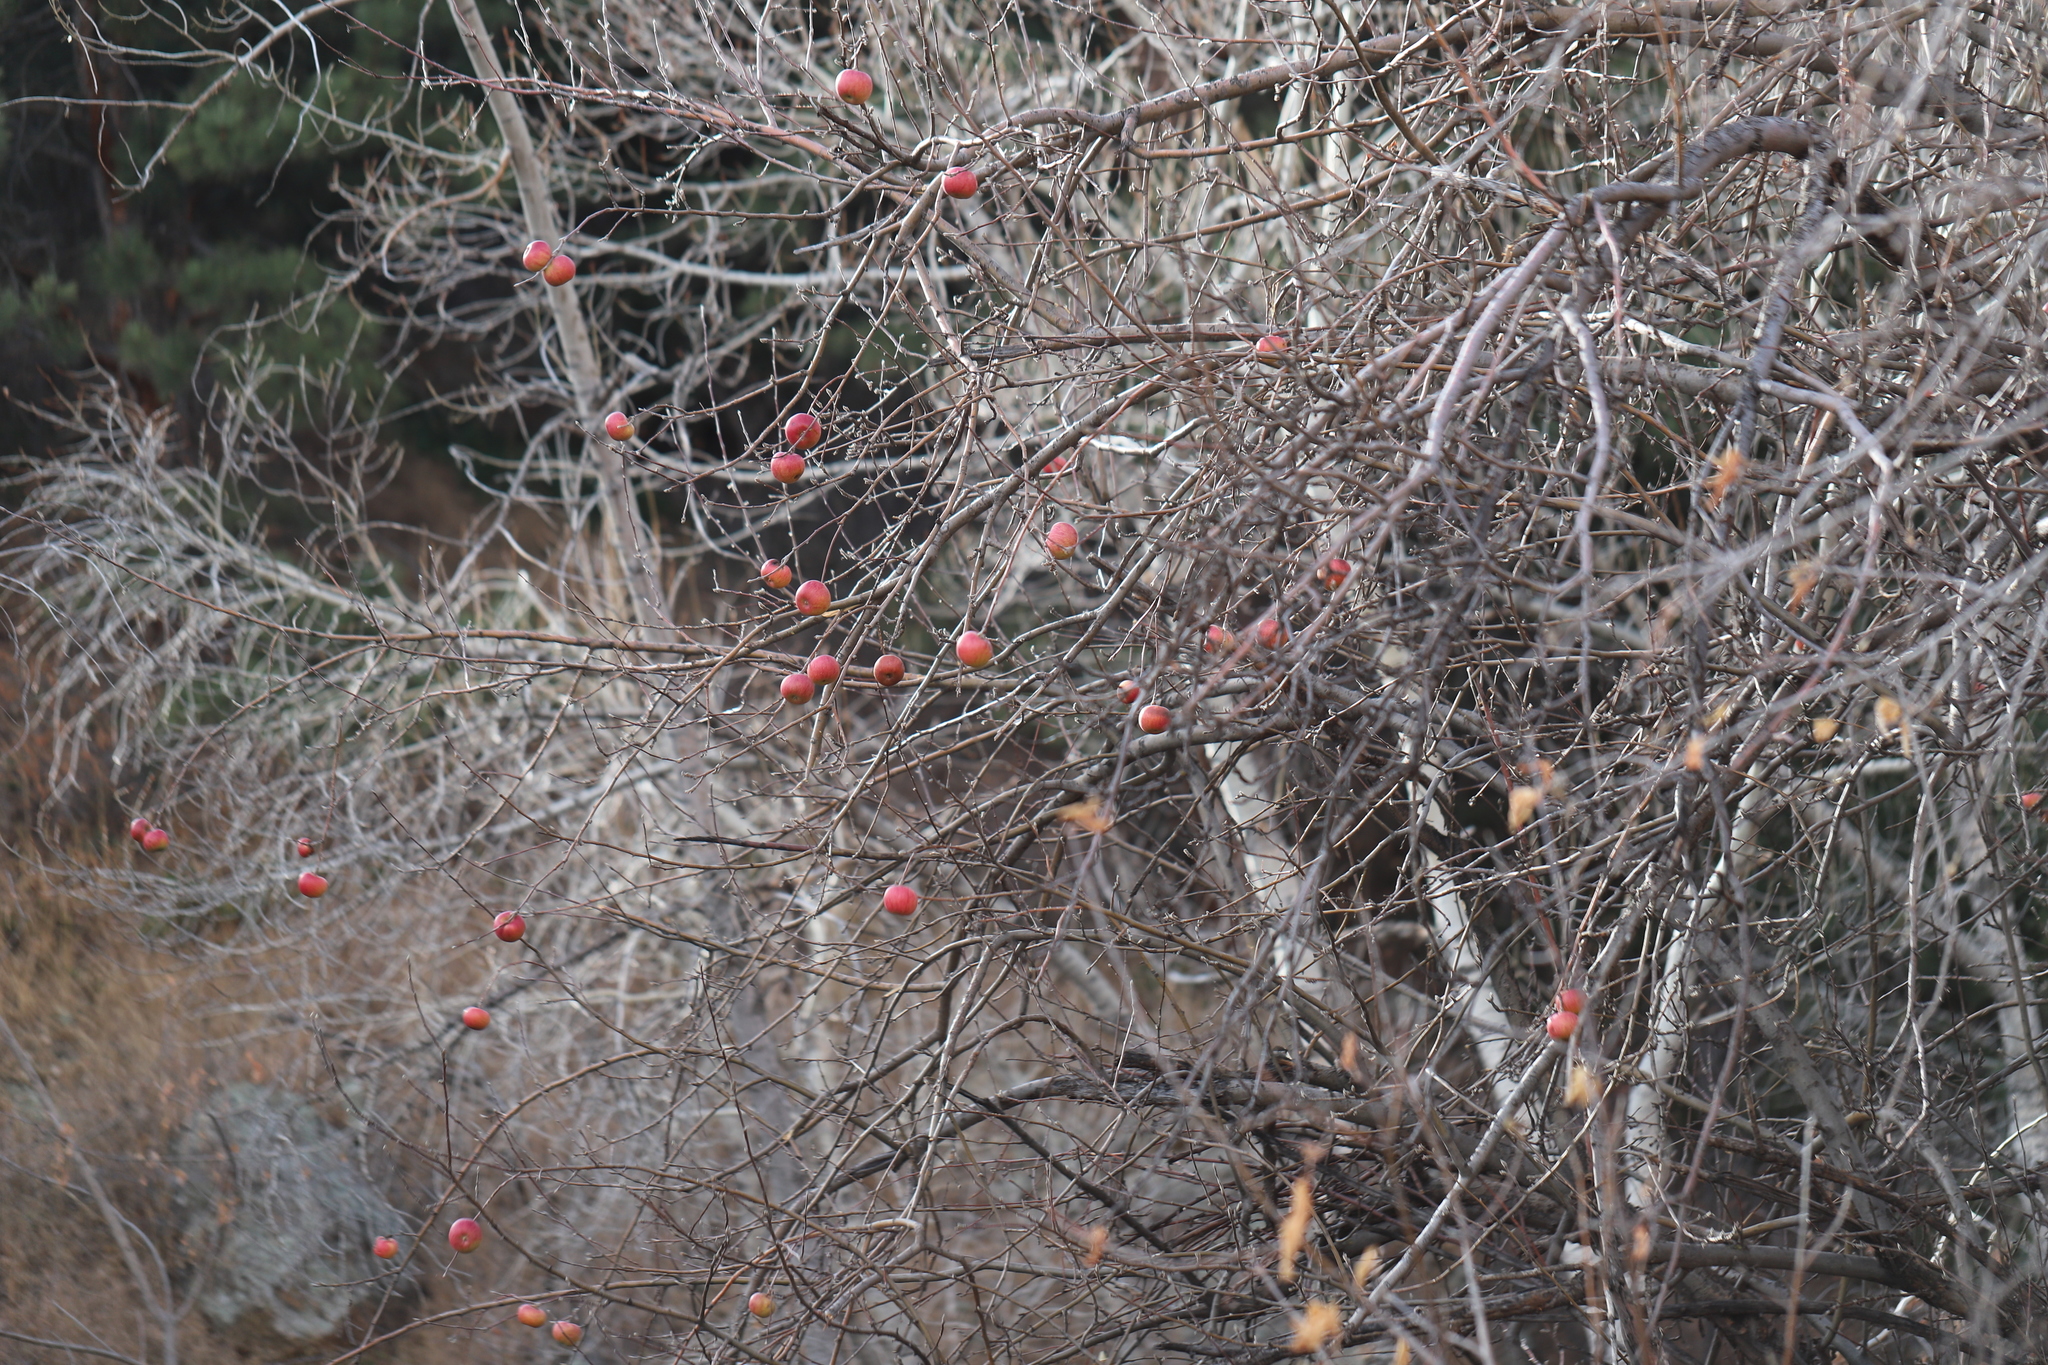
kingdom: Plantae
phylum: Tracheophyta
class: Magnoliopsida
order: Rosales
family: Rosaceae
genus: Malus
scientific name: Malus domestica
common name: Apple
